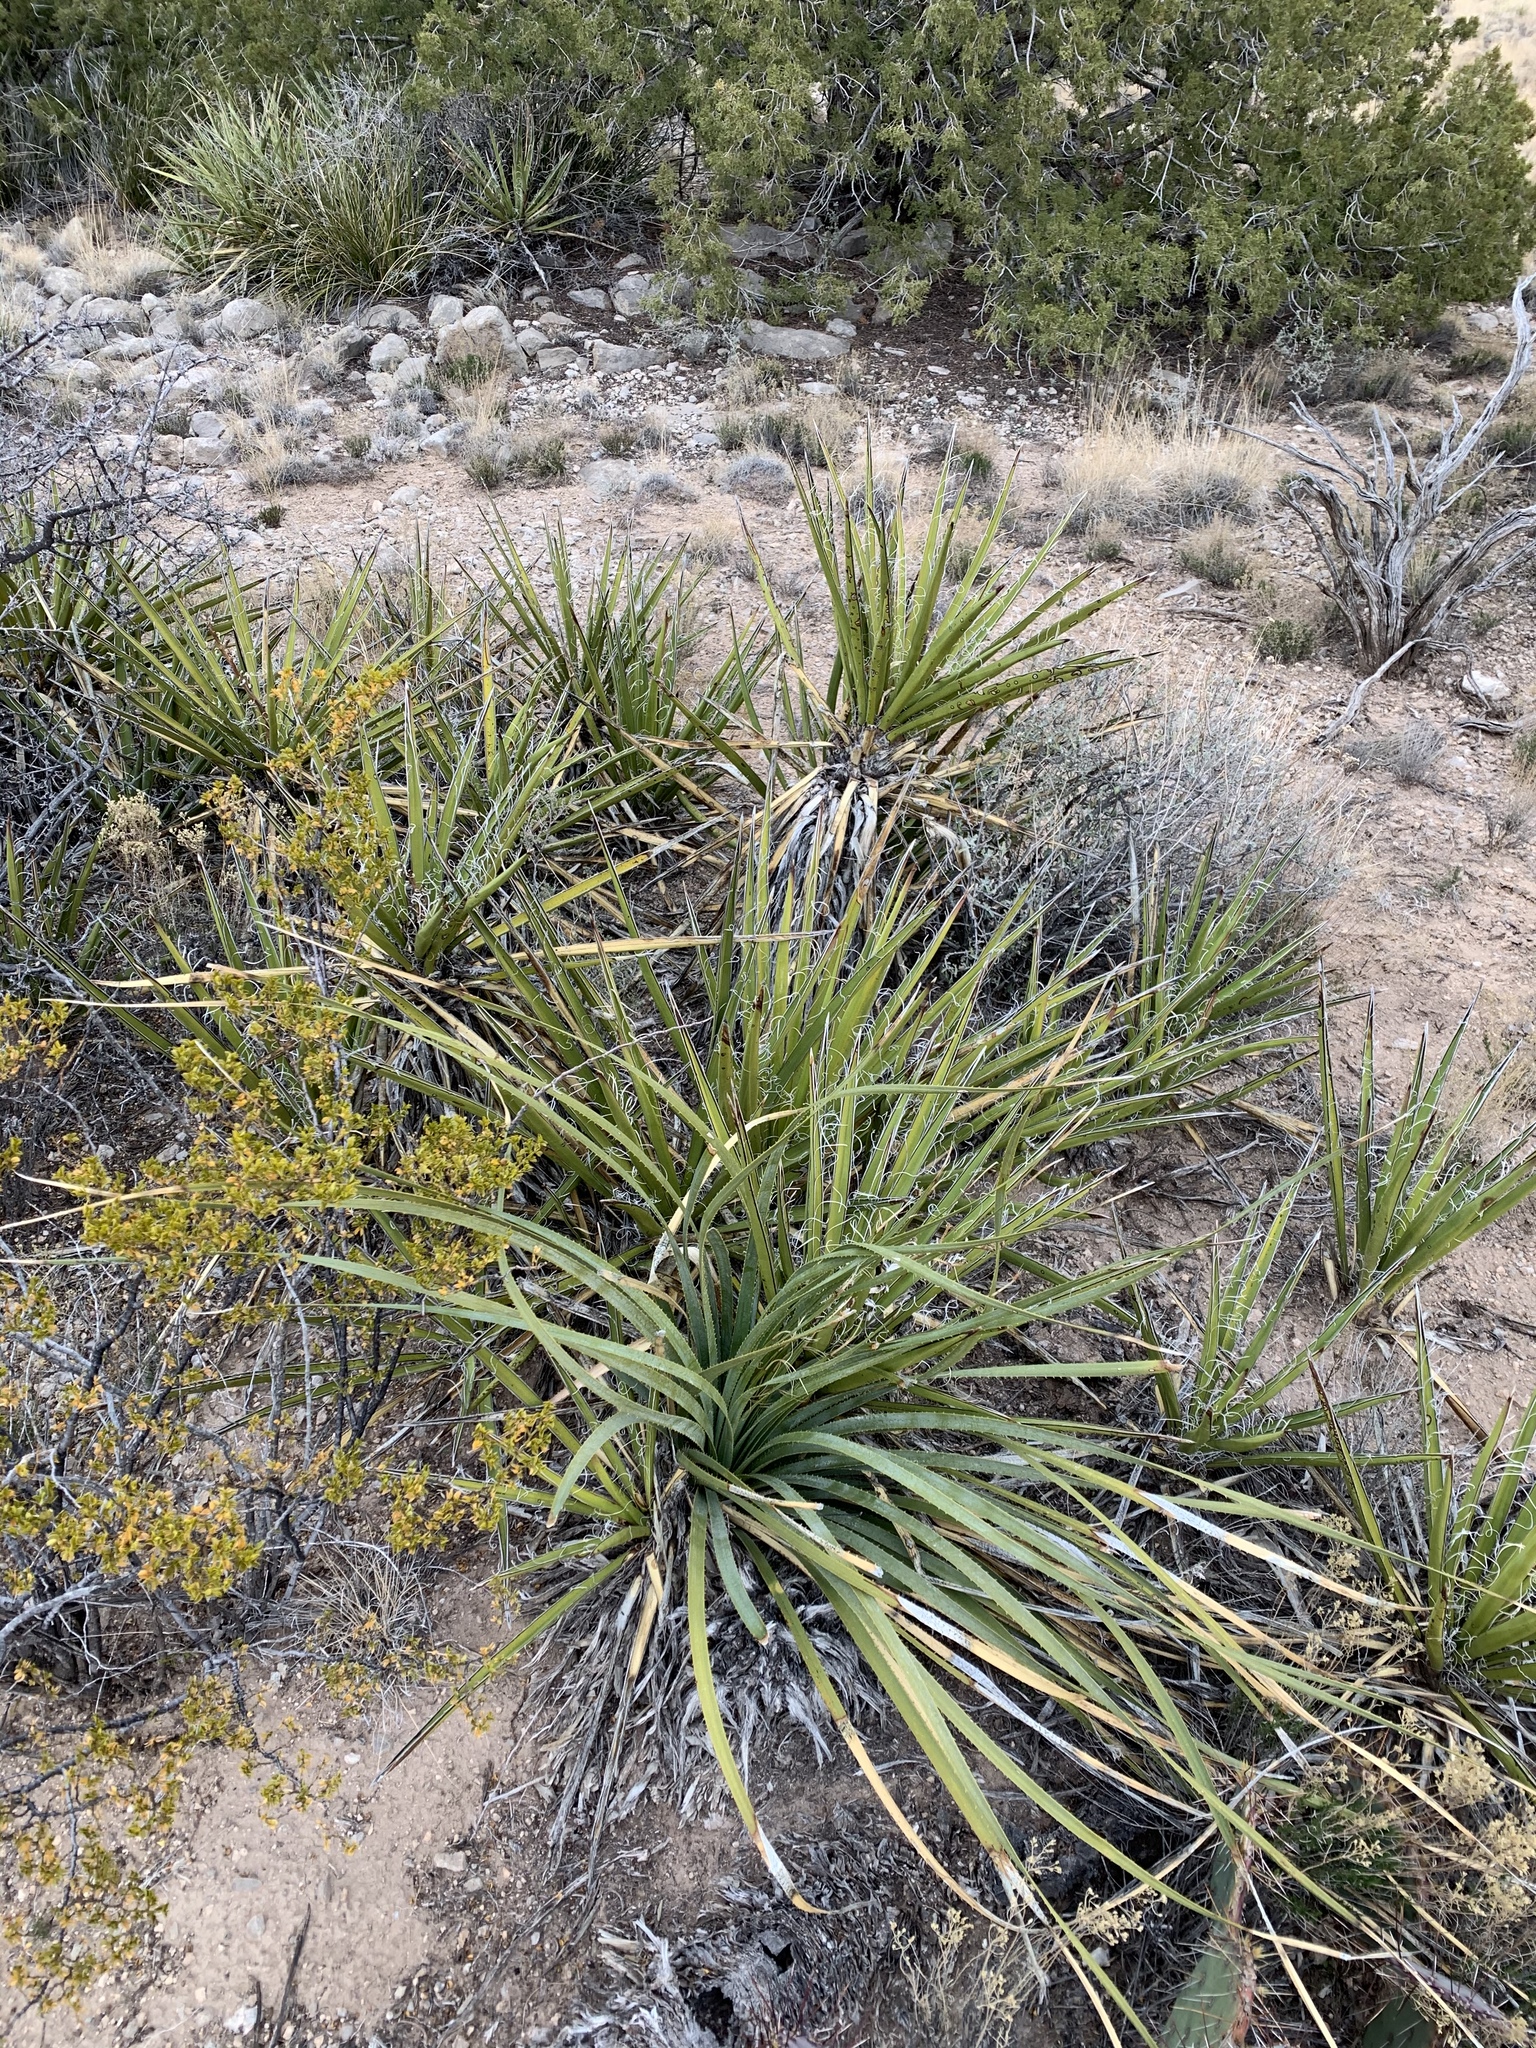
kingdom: Plantae
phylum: Tracheophyta
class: Liliopsida
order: Asparagales
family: Asparagaceae
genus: Dasylirion
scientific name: Dasylirion wheeleri
